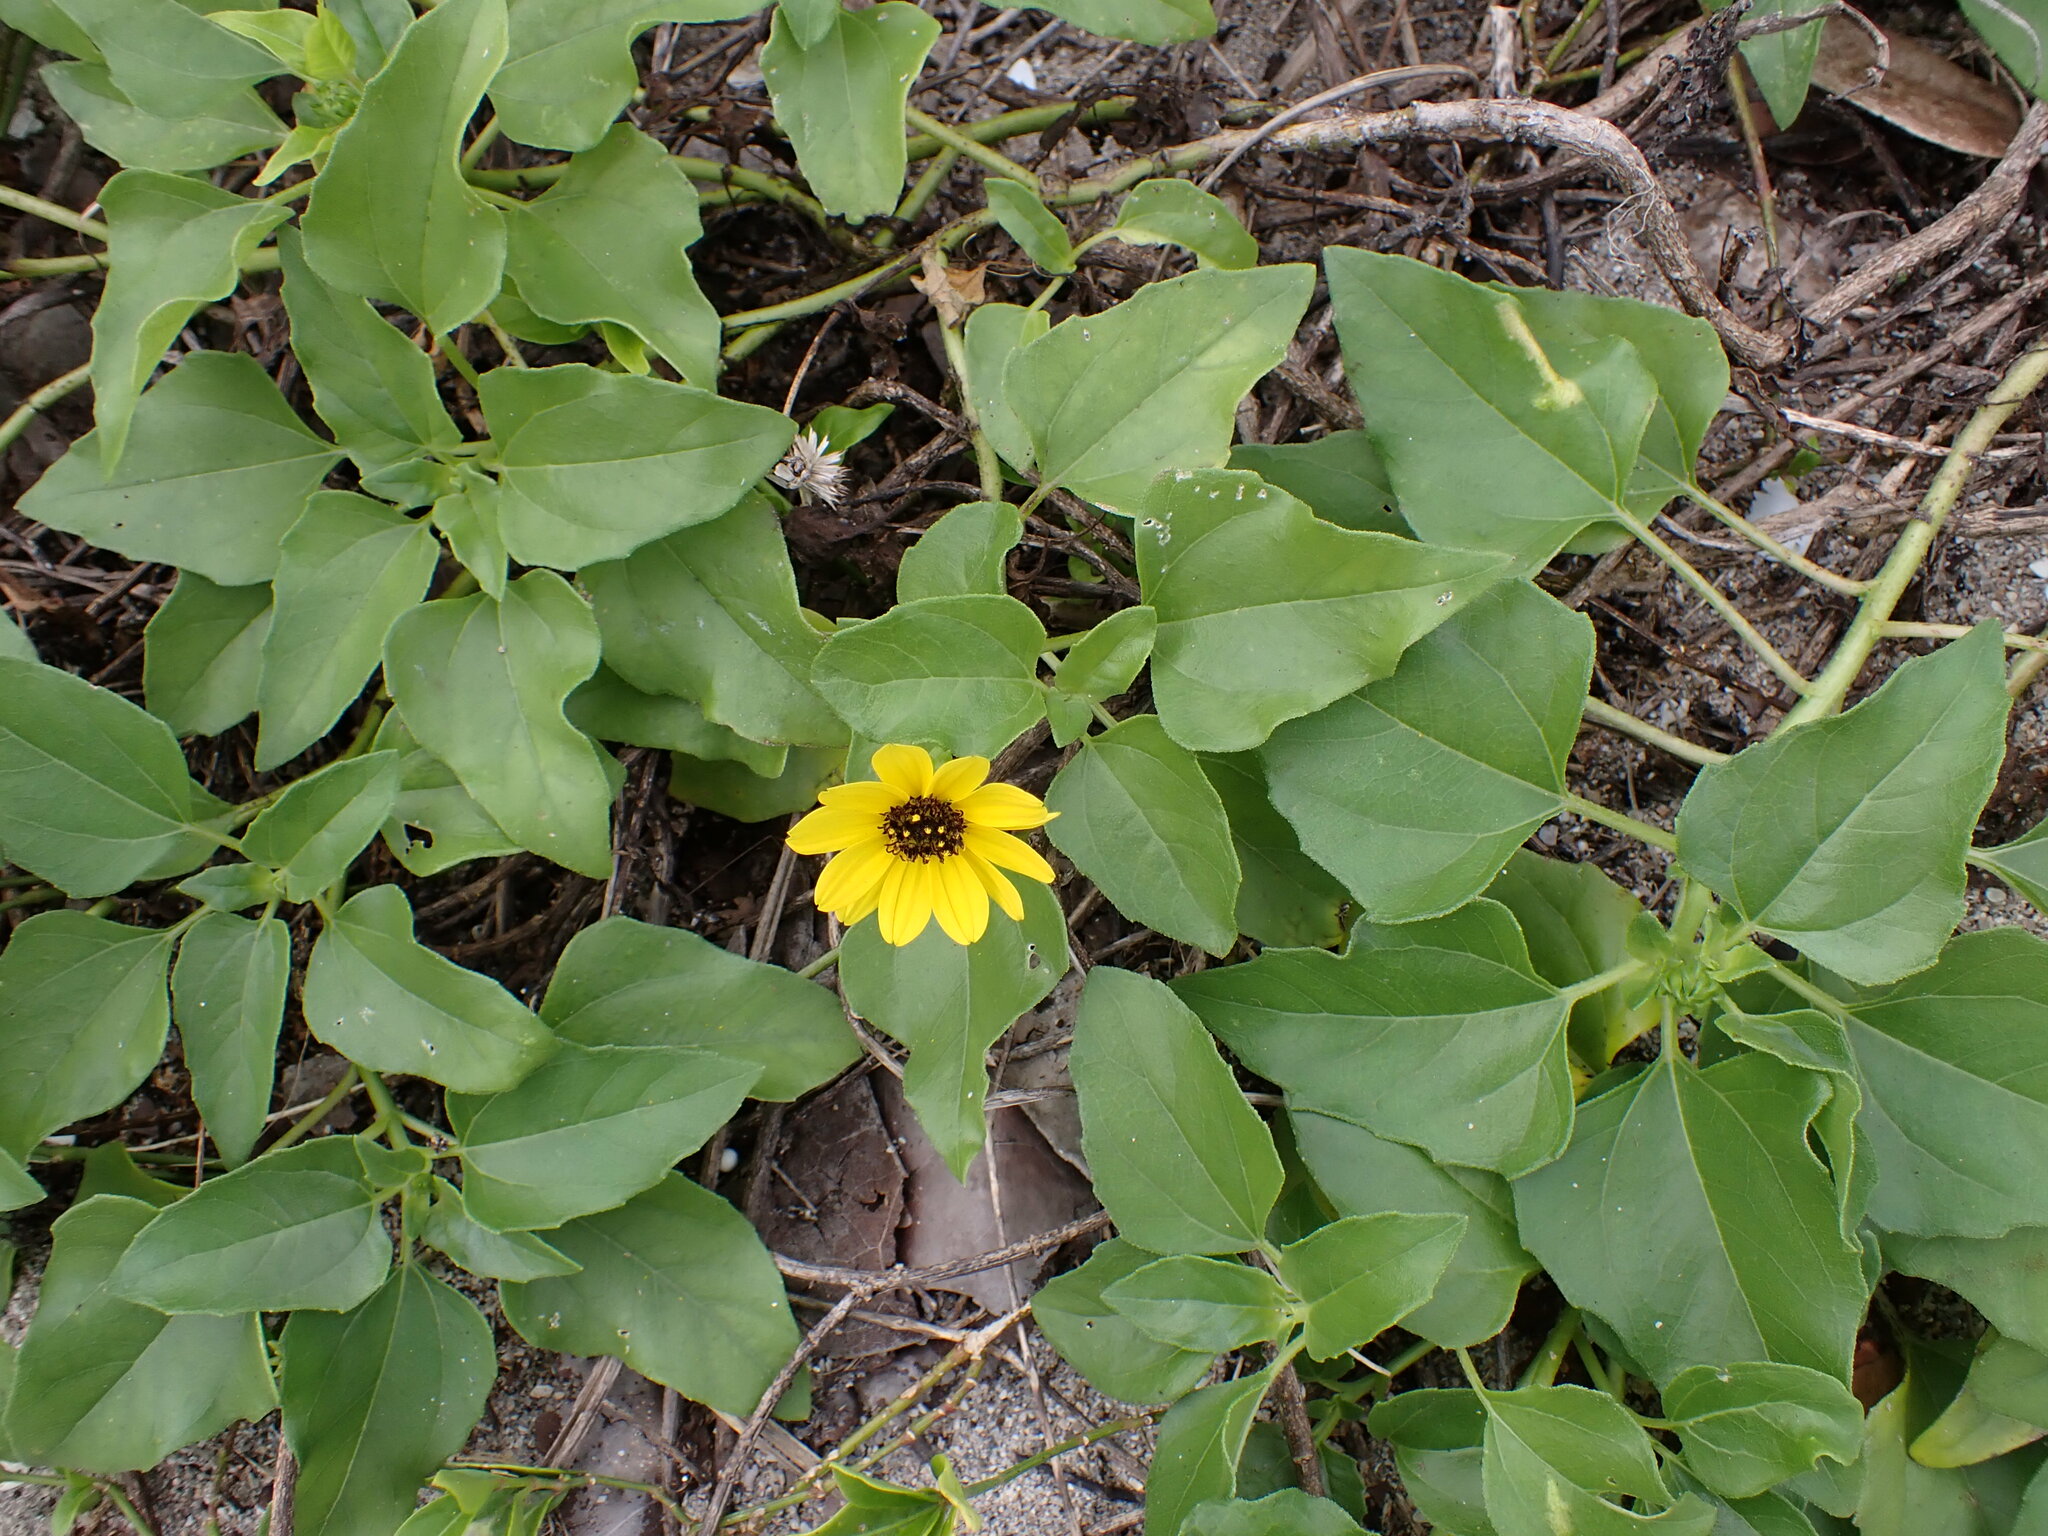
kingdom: Plantae
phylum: Tracheophyta
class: Magnoliopsida
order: Asterales
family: Asteraceae
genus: Helianthus
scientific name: Helianthus debilis
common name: Weak sunflower
